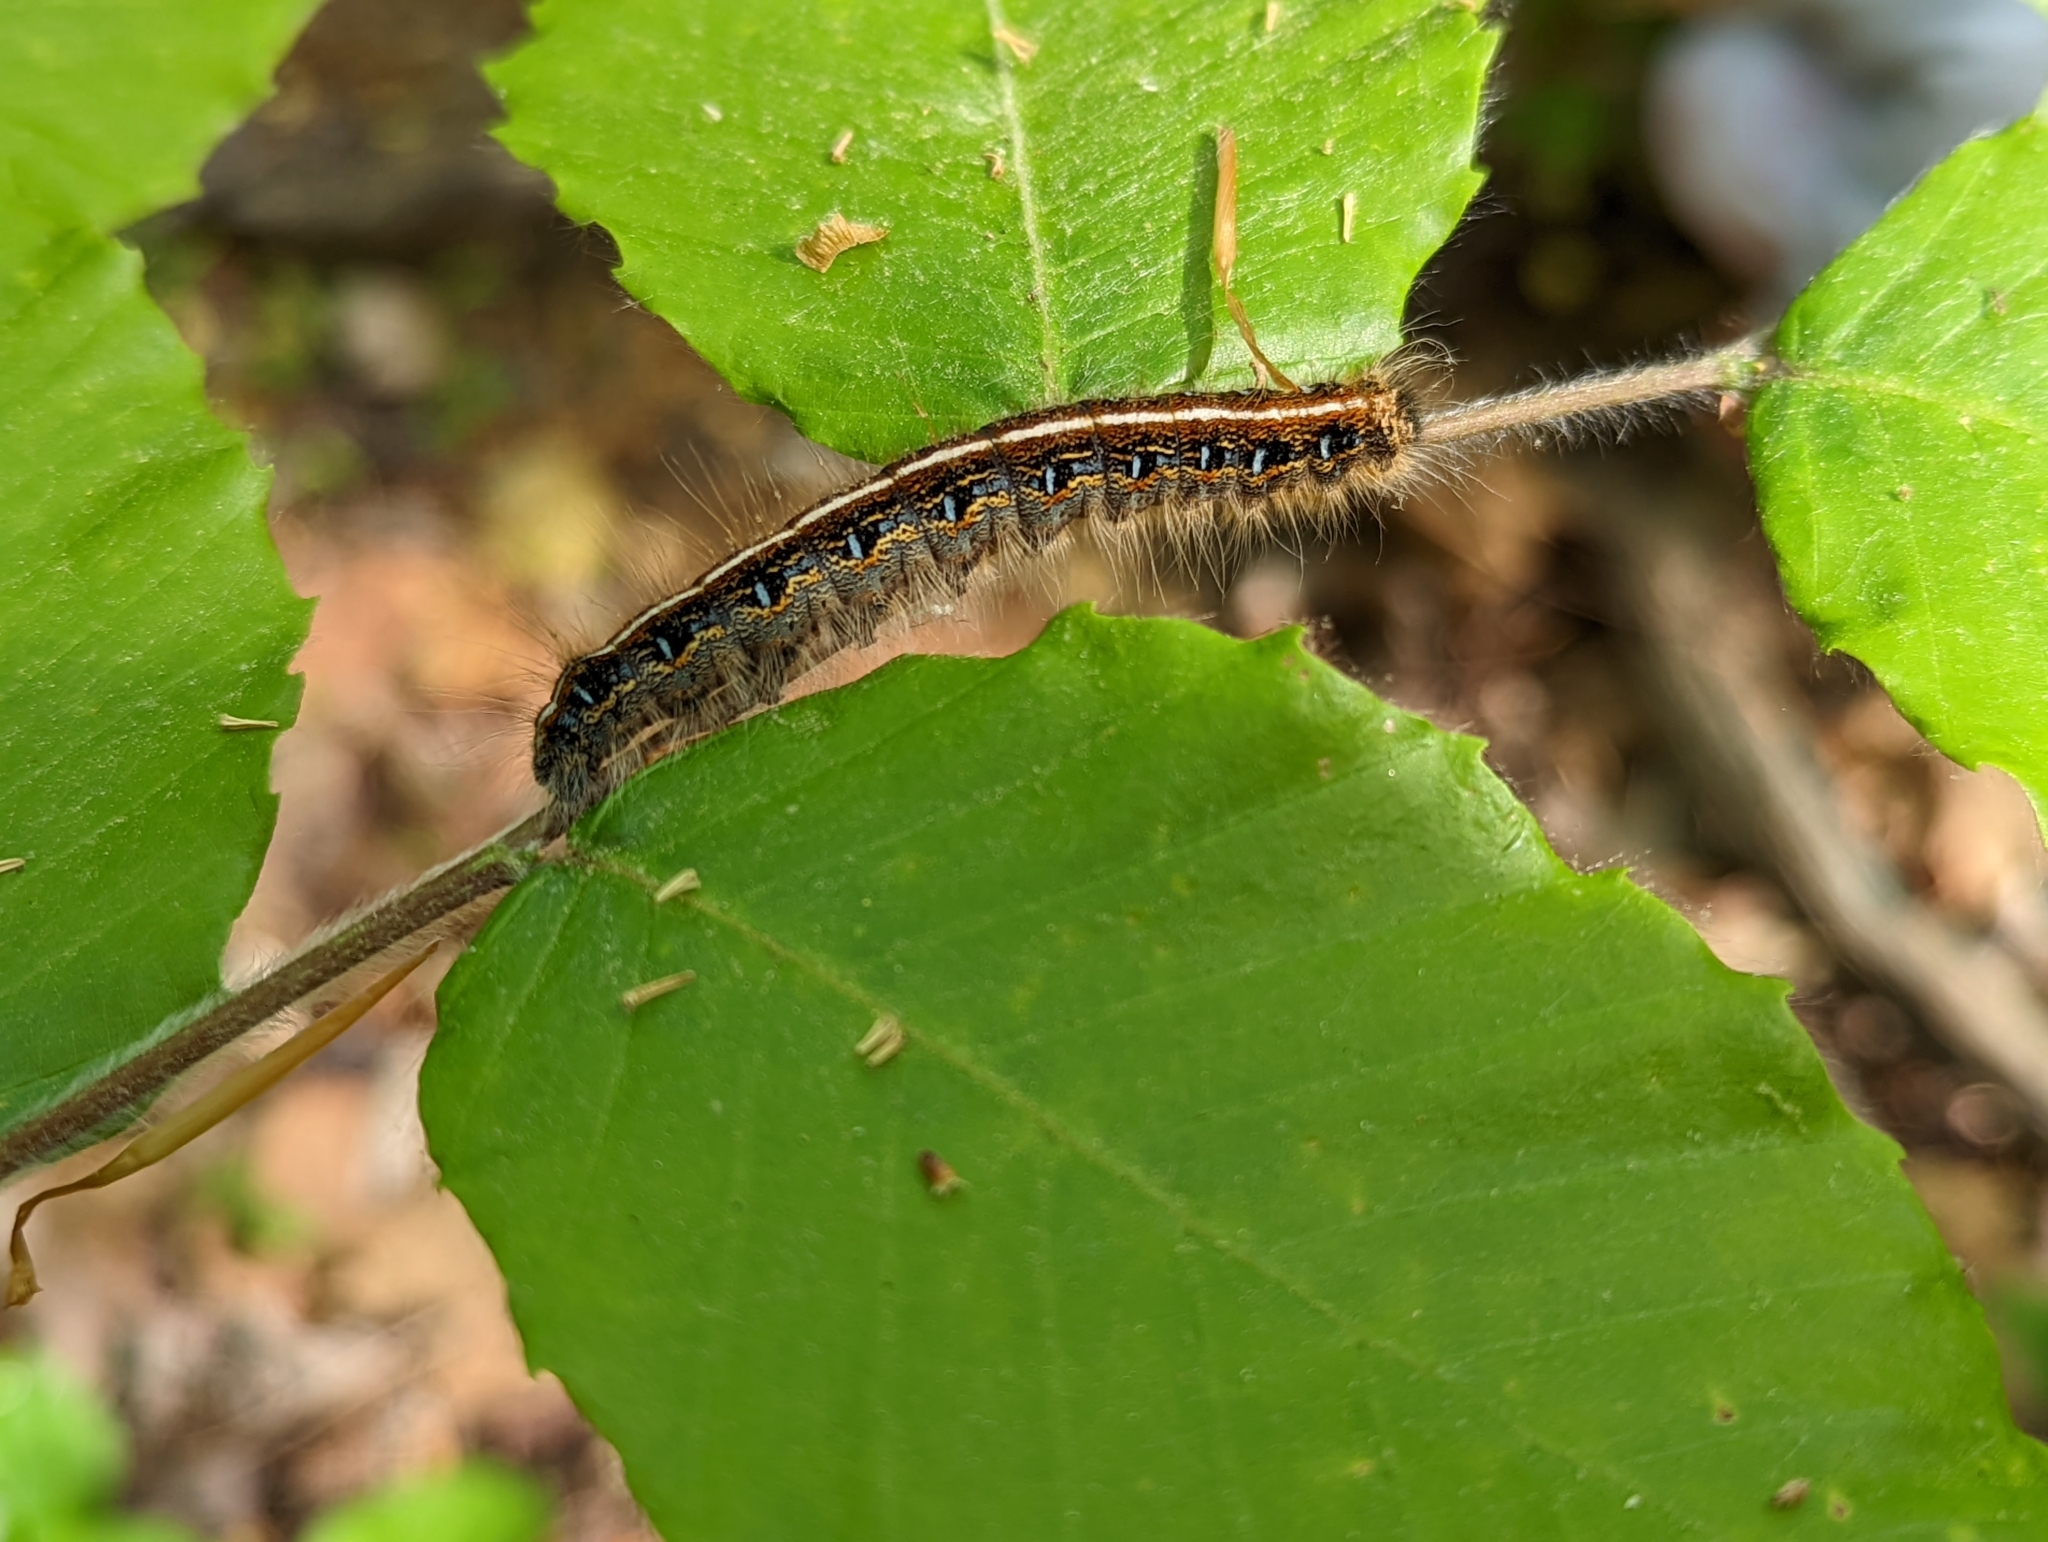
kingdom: Animalia
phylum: Arthropoda
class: Insecta
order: Lepidoptera
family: Lasiocampidae
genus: Malacosoma
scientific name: Malacosoma americana
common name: Eastern tent caterpillar moth
